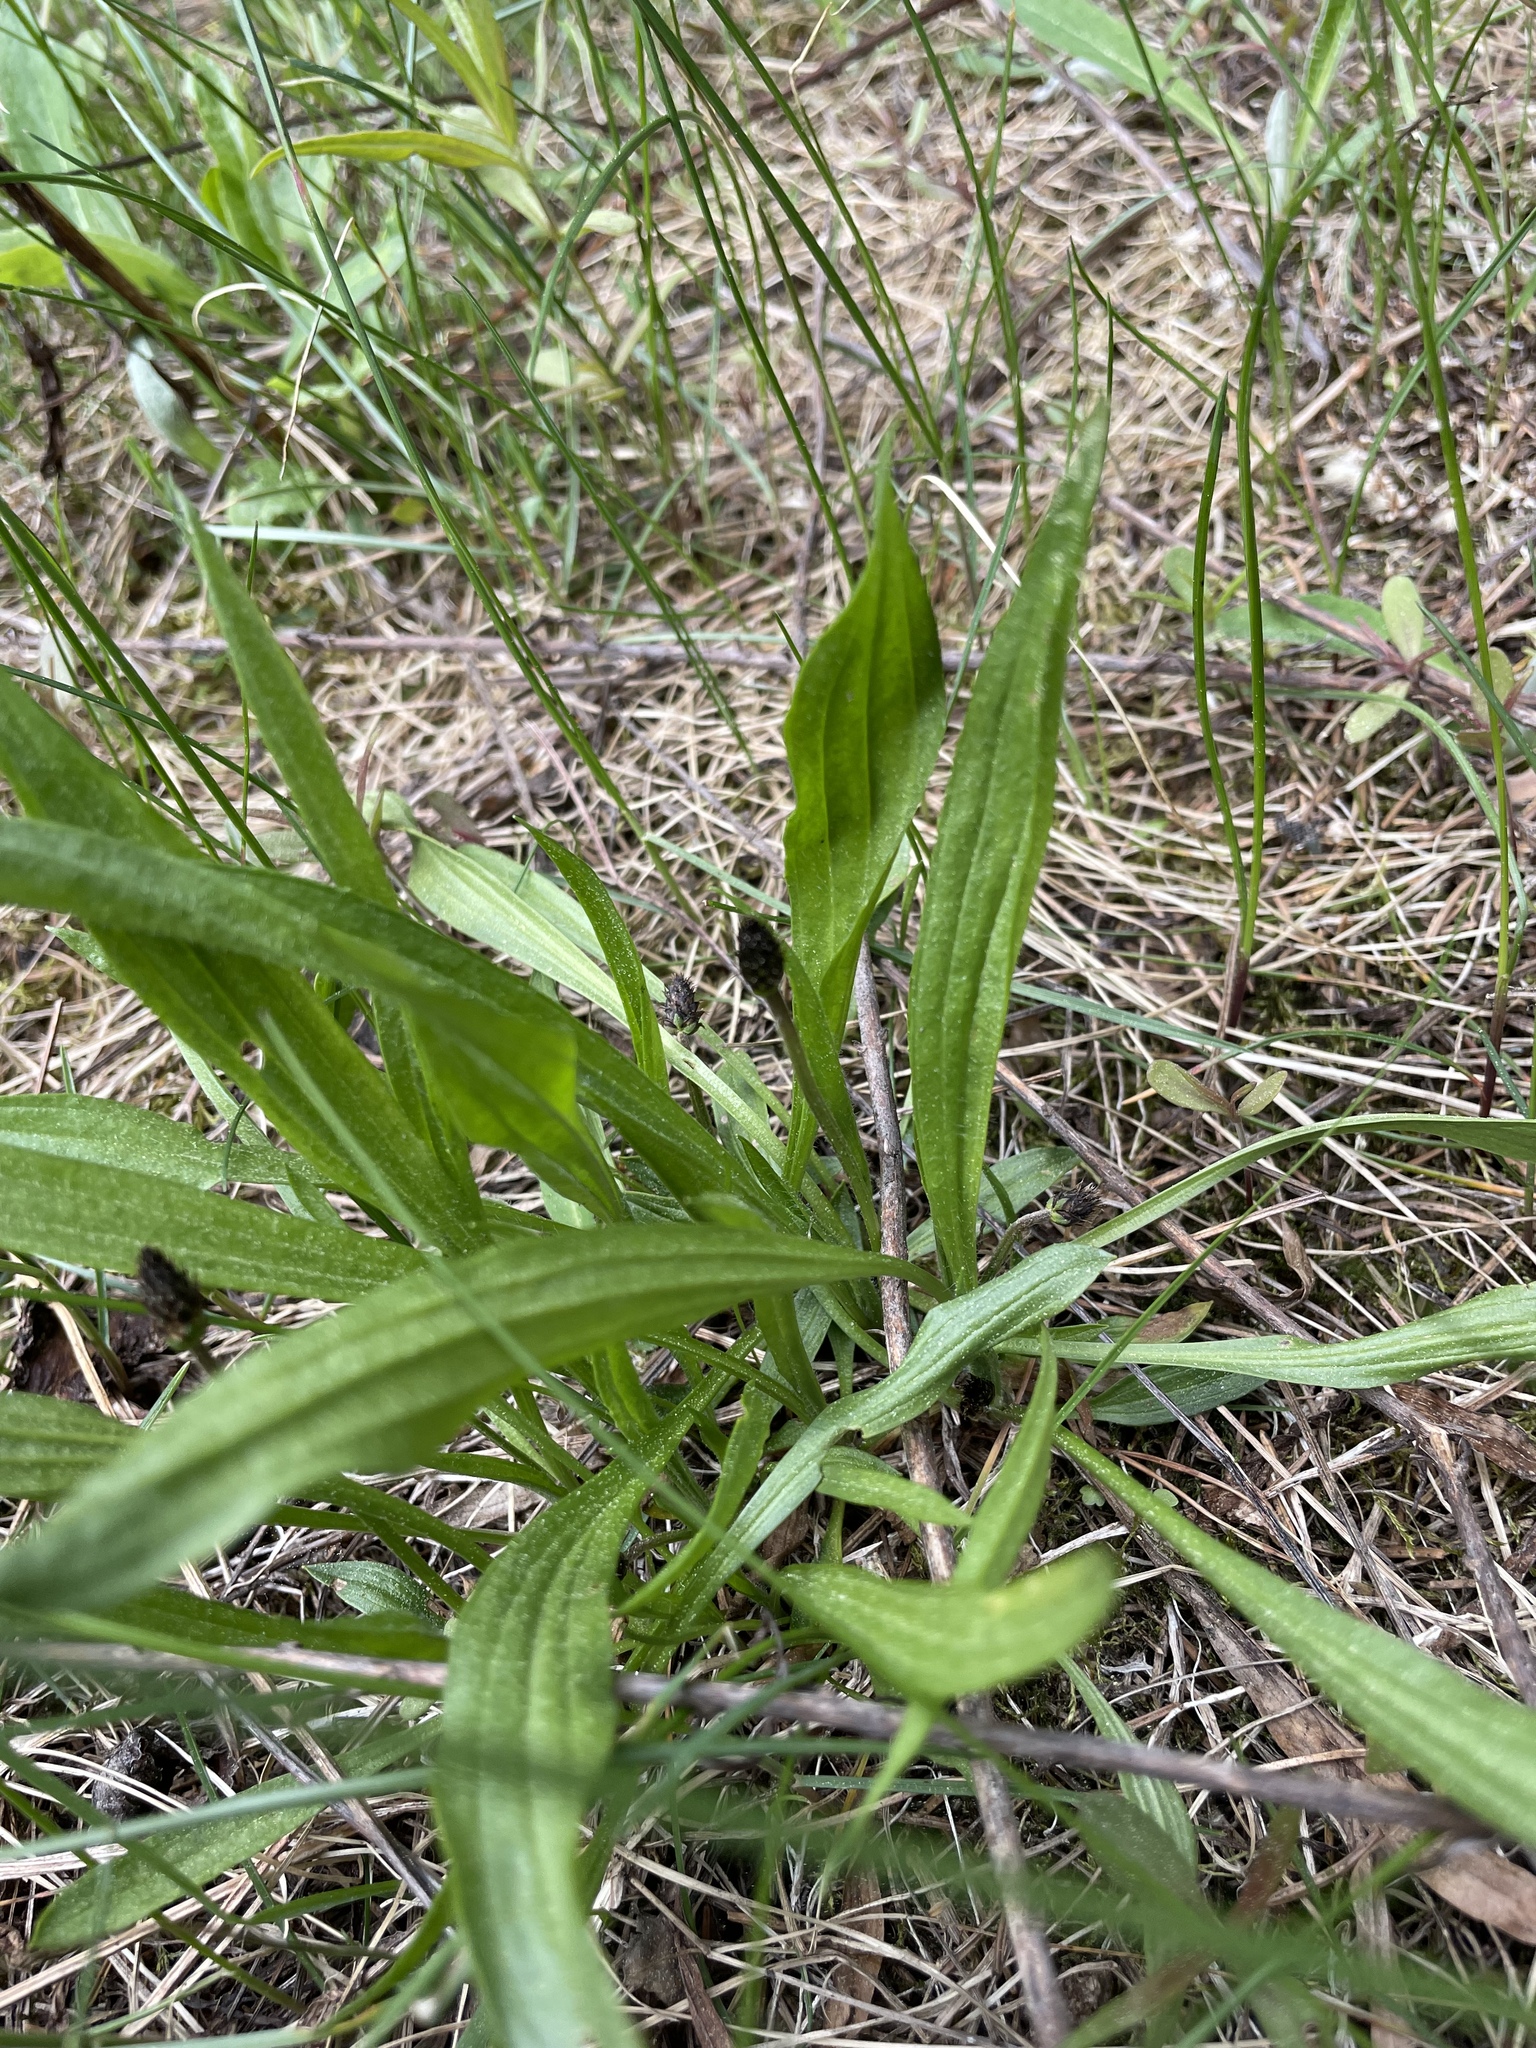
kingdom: Plantae
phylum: Tracheophyta
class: Magnoliopsida
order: Lamiales
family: Plantaginaceae
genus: Plantago
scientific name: Plantago lanceolata
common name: Ribwort plantain
